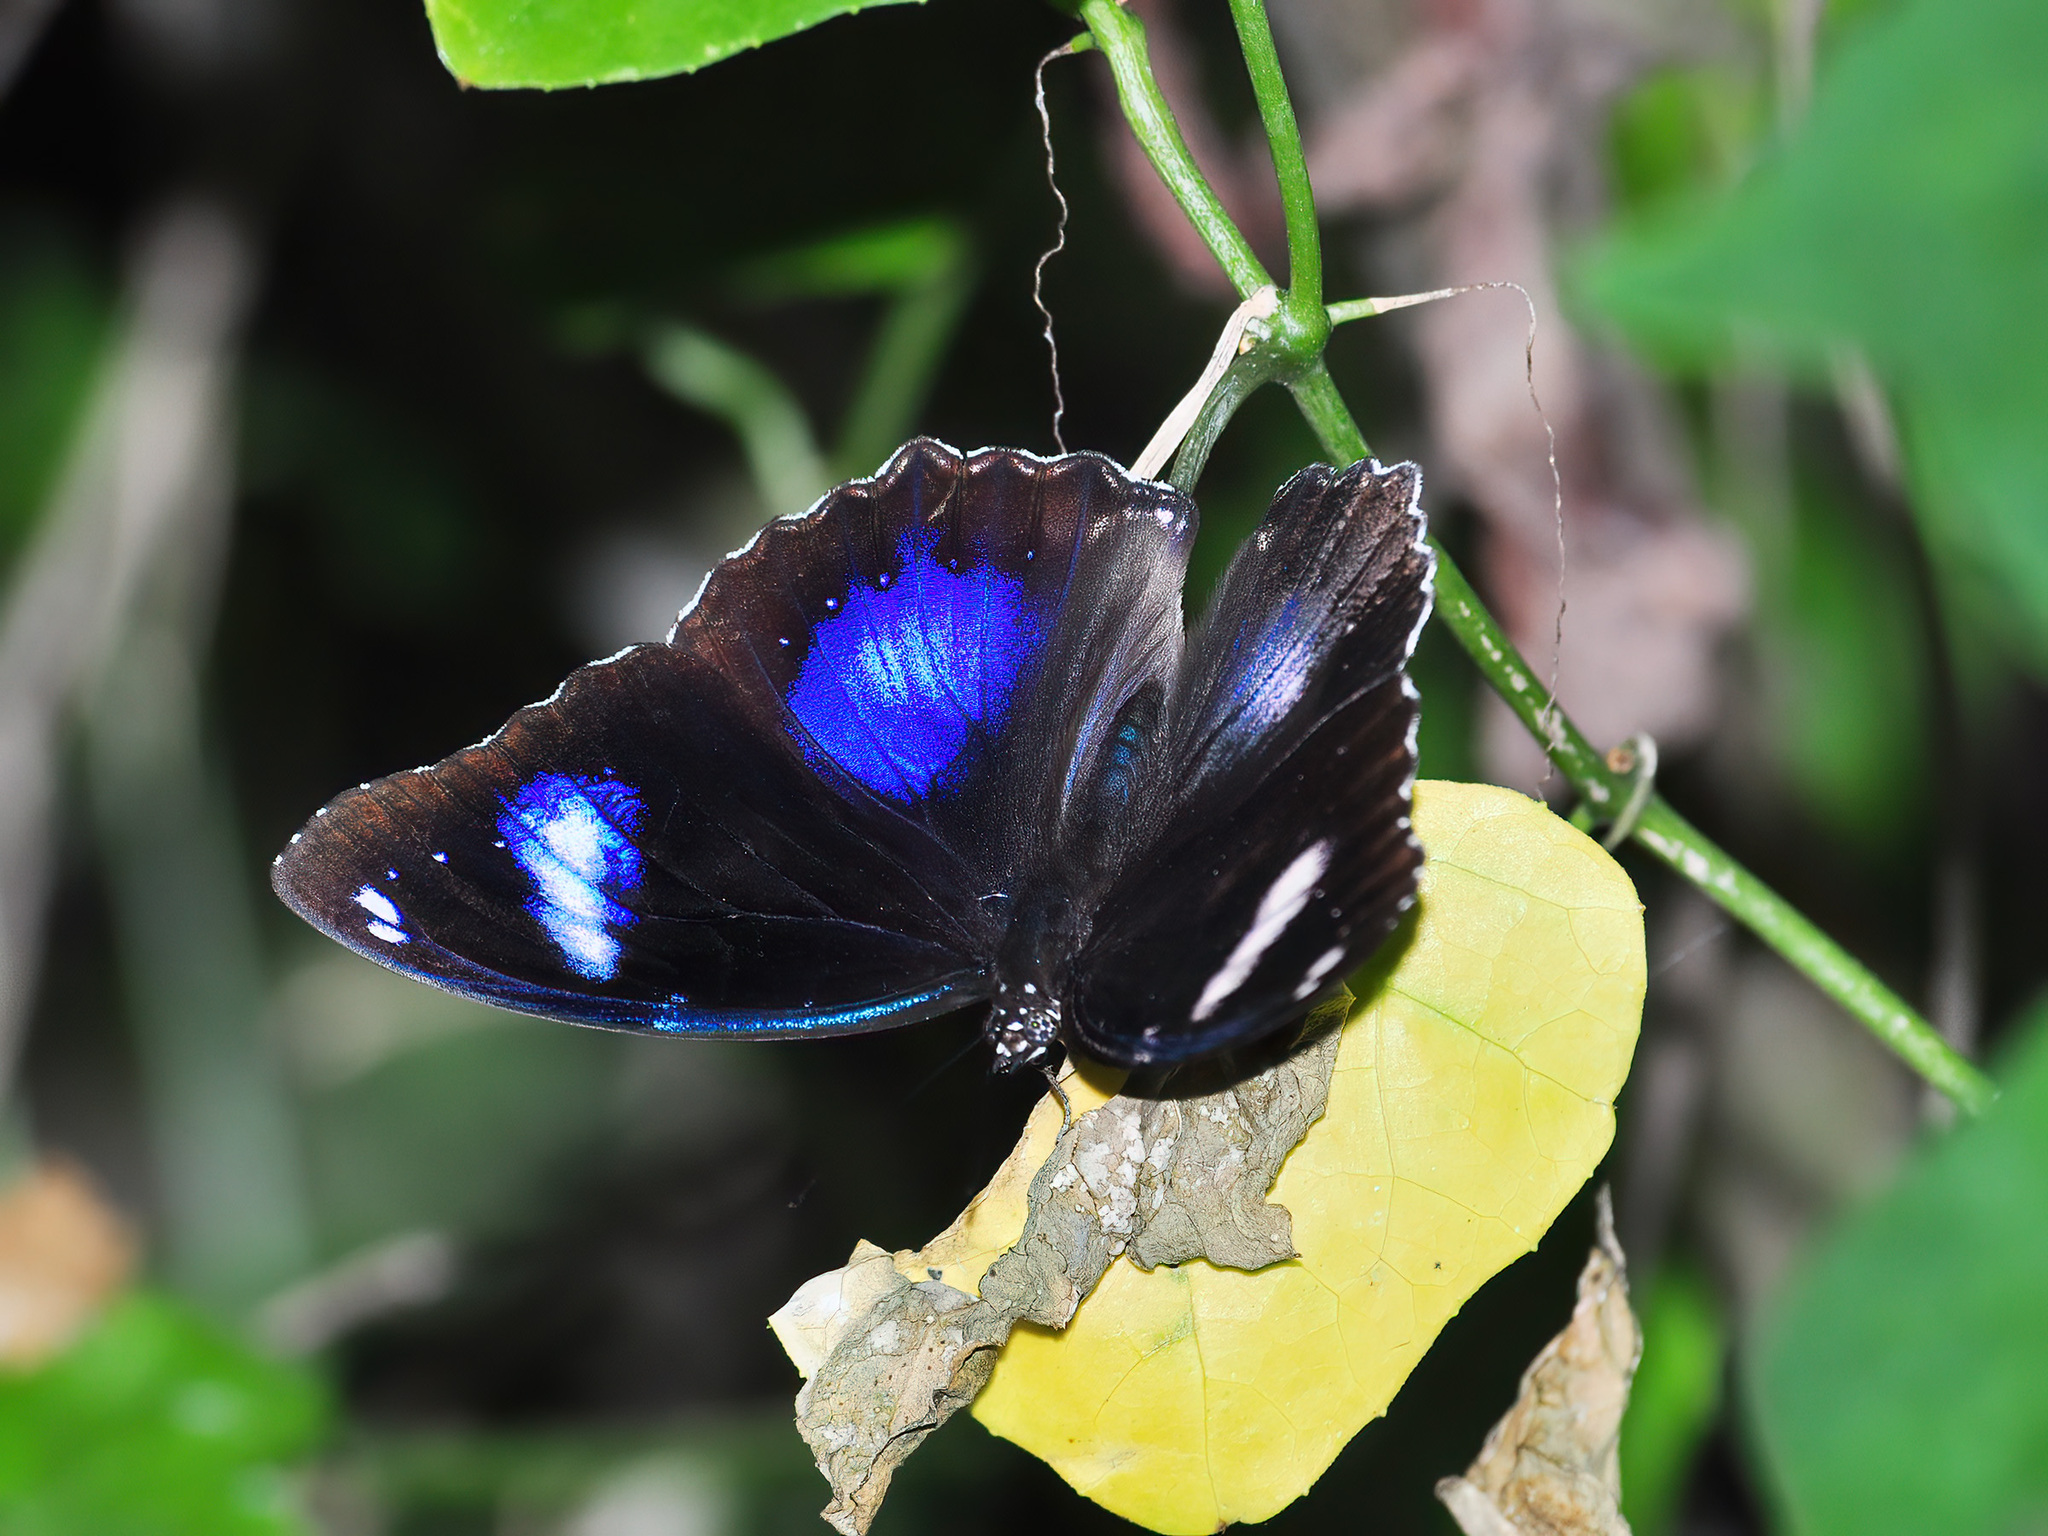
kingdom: Animalia
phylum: Arthropoda
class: Insecta
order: Lepidoptera
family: Nymphalidae
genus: Hypolimnas
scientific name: Hypolimnas bolina
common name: Great eggfly
